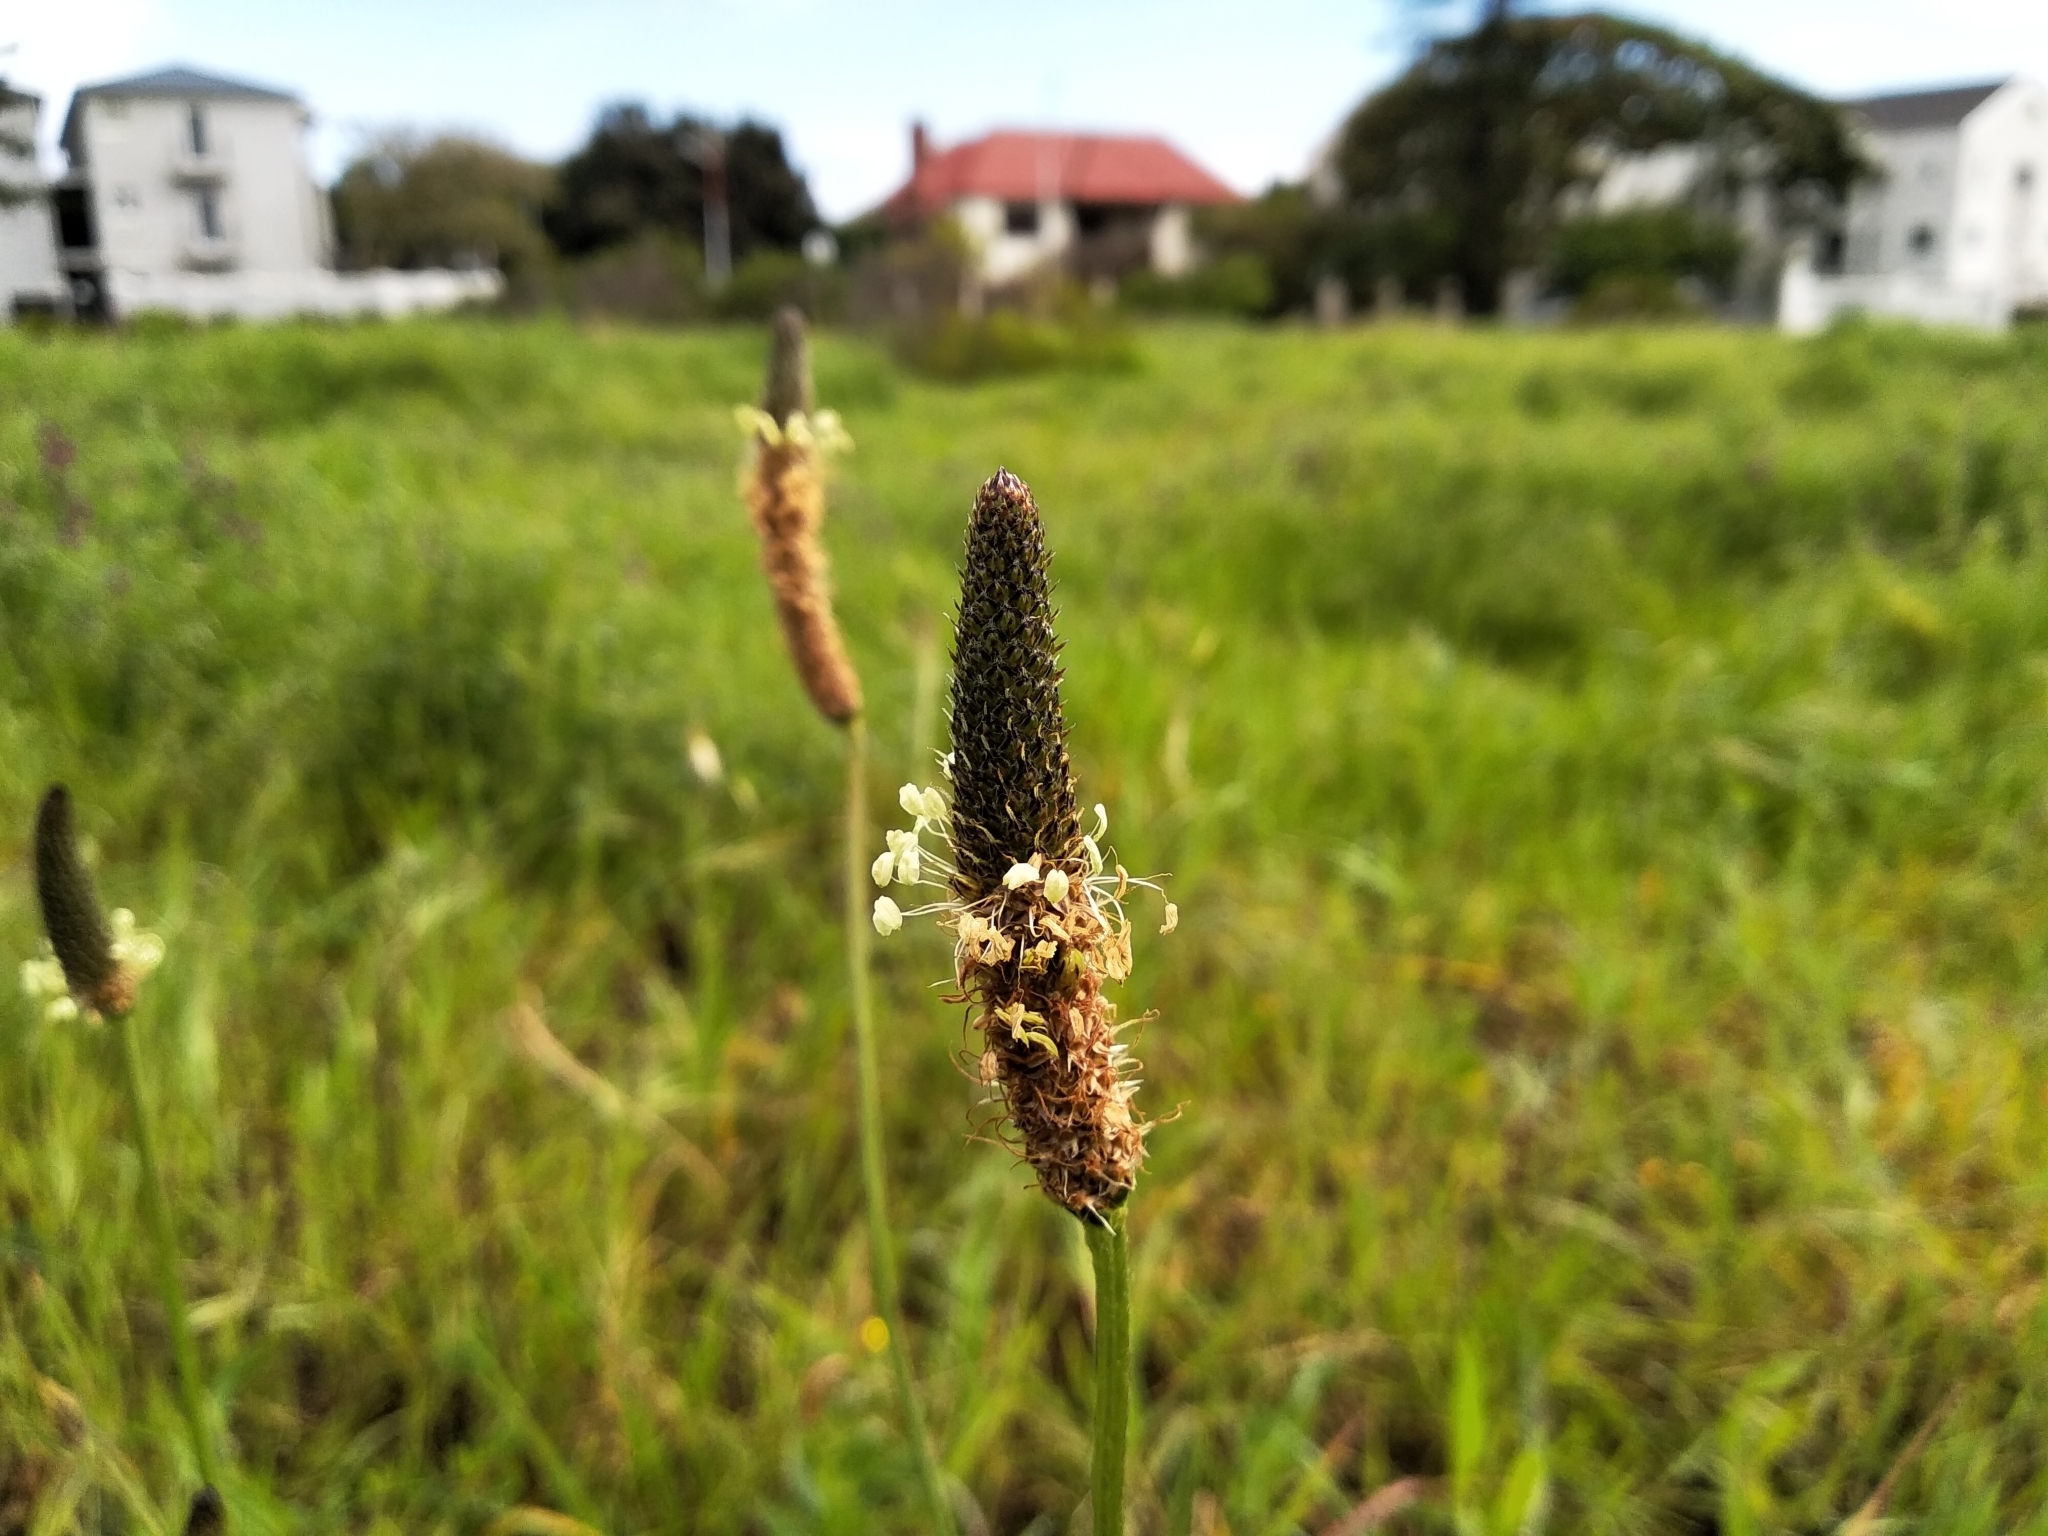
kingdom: Plantae
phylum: Tracheophyta
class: Magnoliopsida
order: Lamiales
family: Plantaginaceae
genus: Plantago
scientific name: Plantago lanceolata
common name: Ribwort plantain
